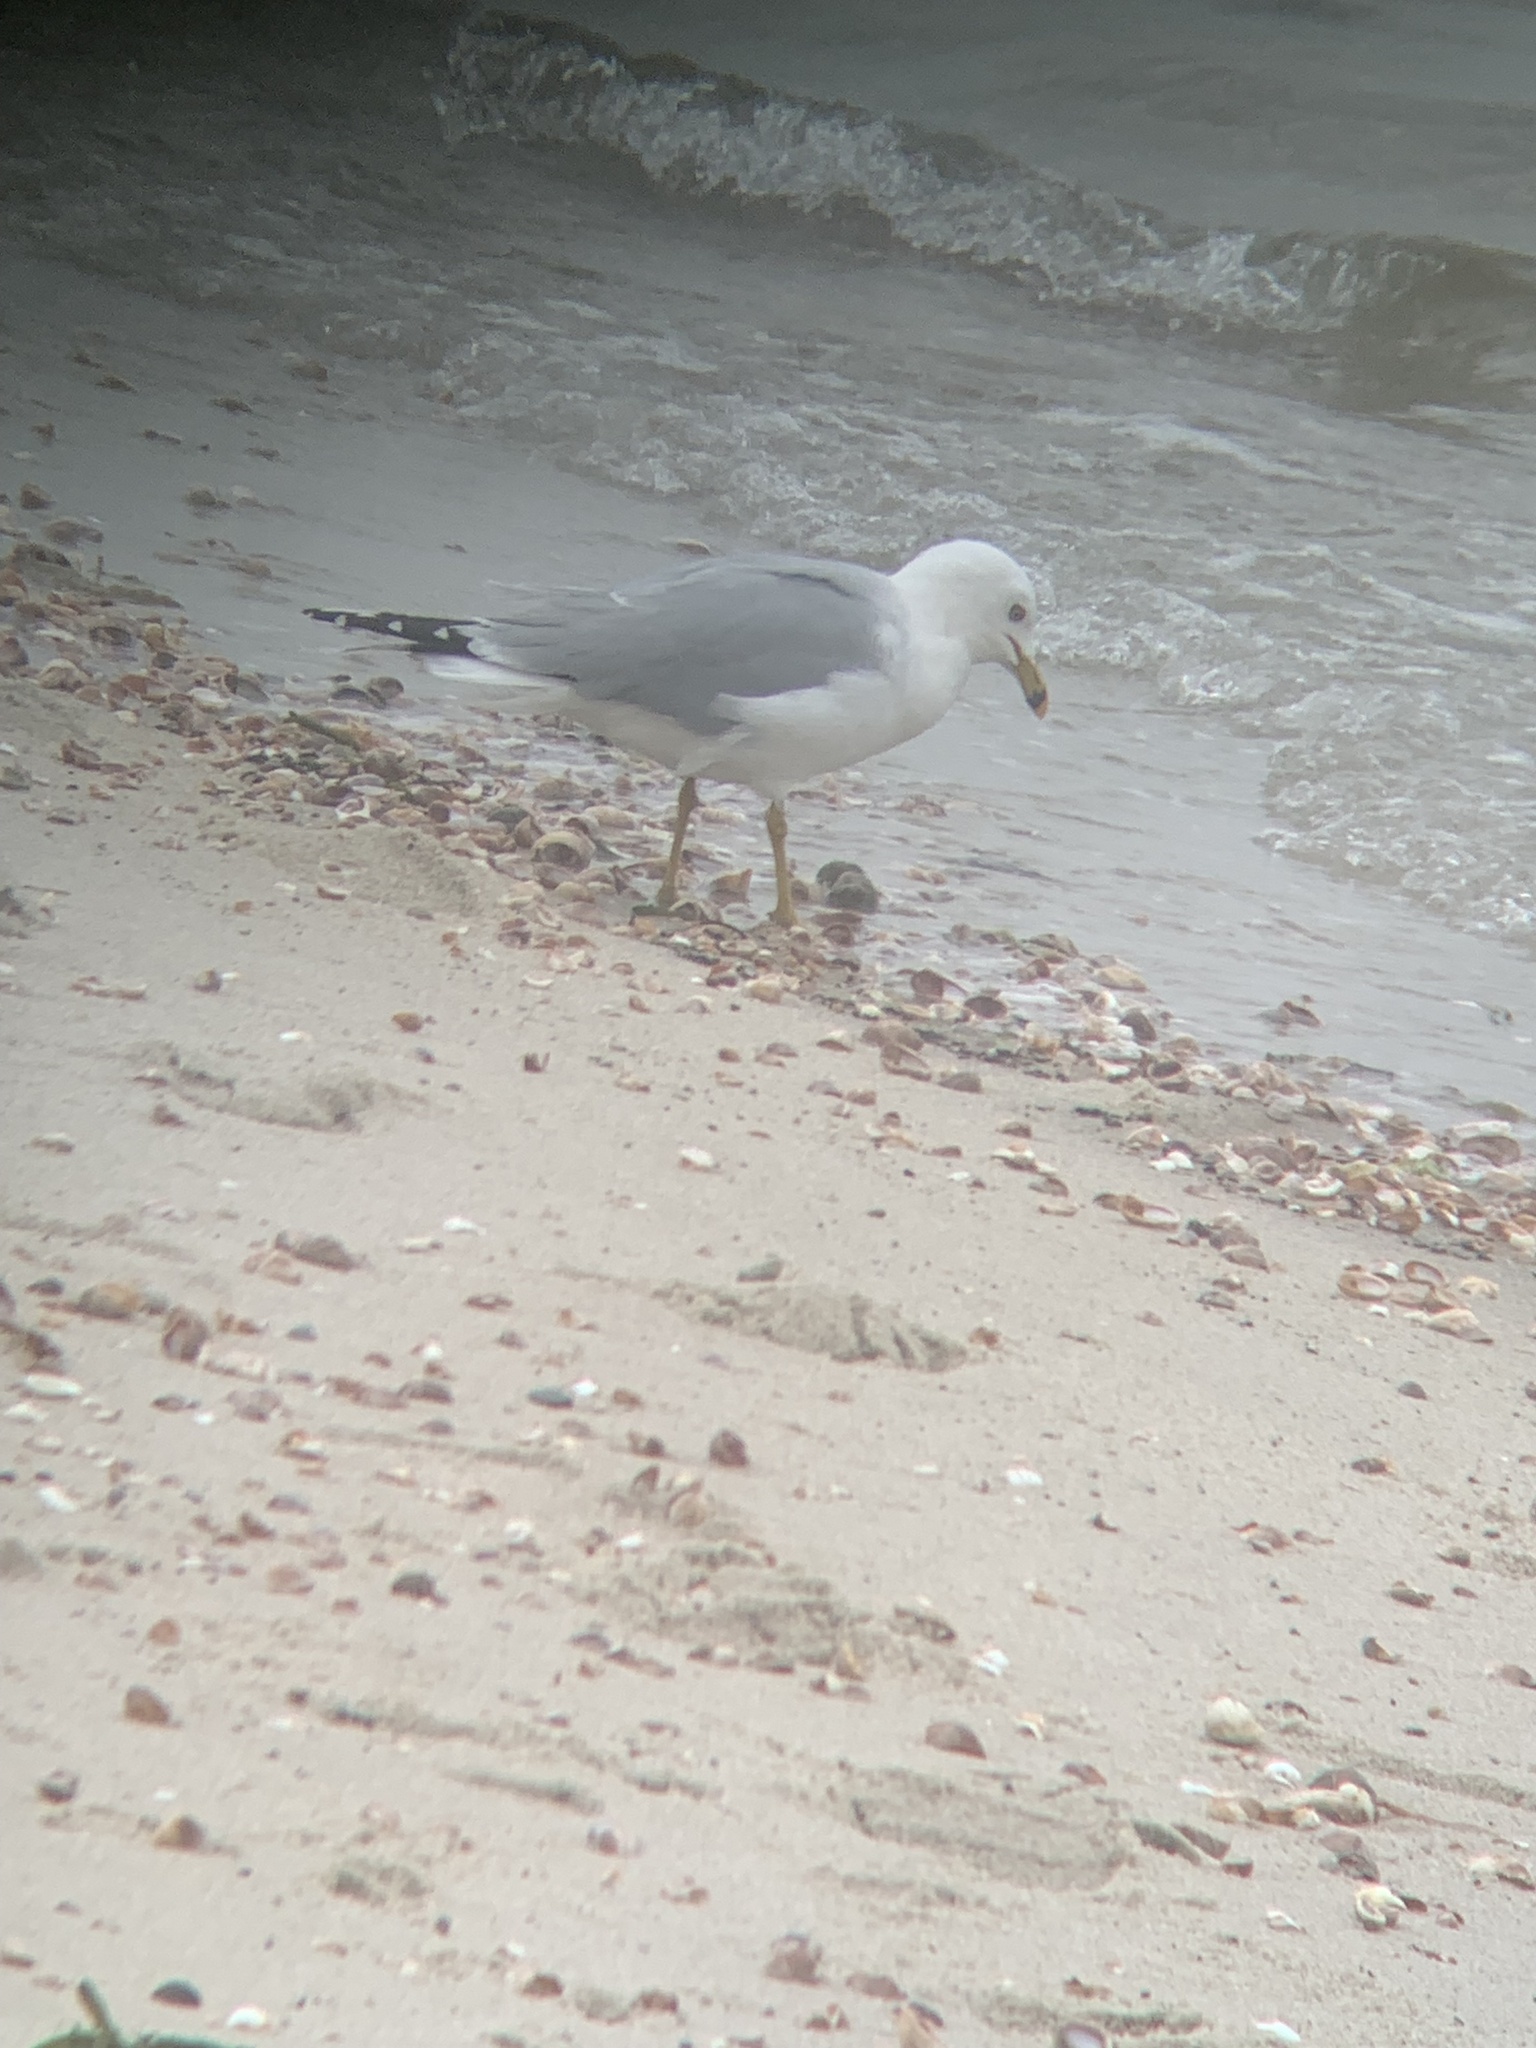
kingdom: Animalia
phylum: Chordata
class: Aves
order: Charadriiformes
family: Laridae
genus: Larus
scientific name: Larus delawarensis
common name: Ring-billed gull
